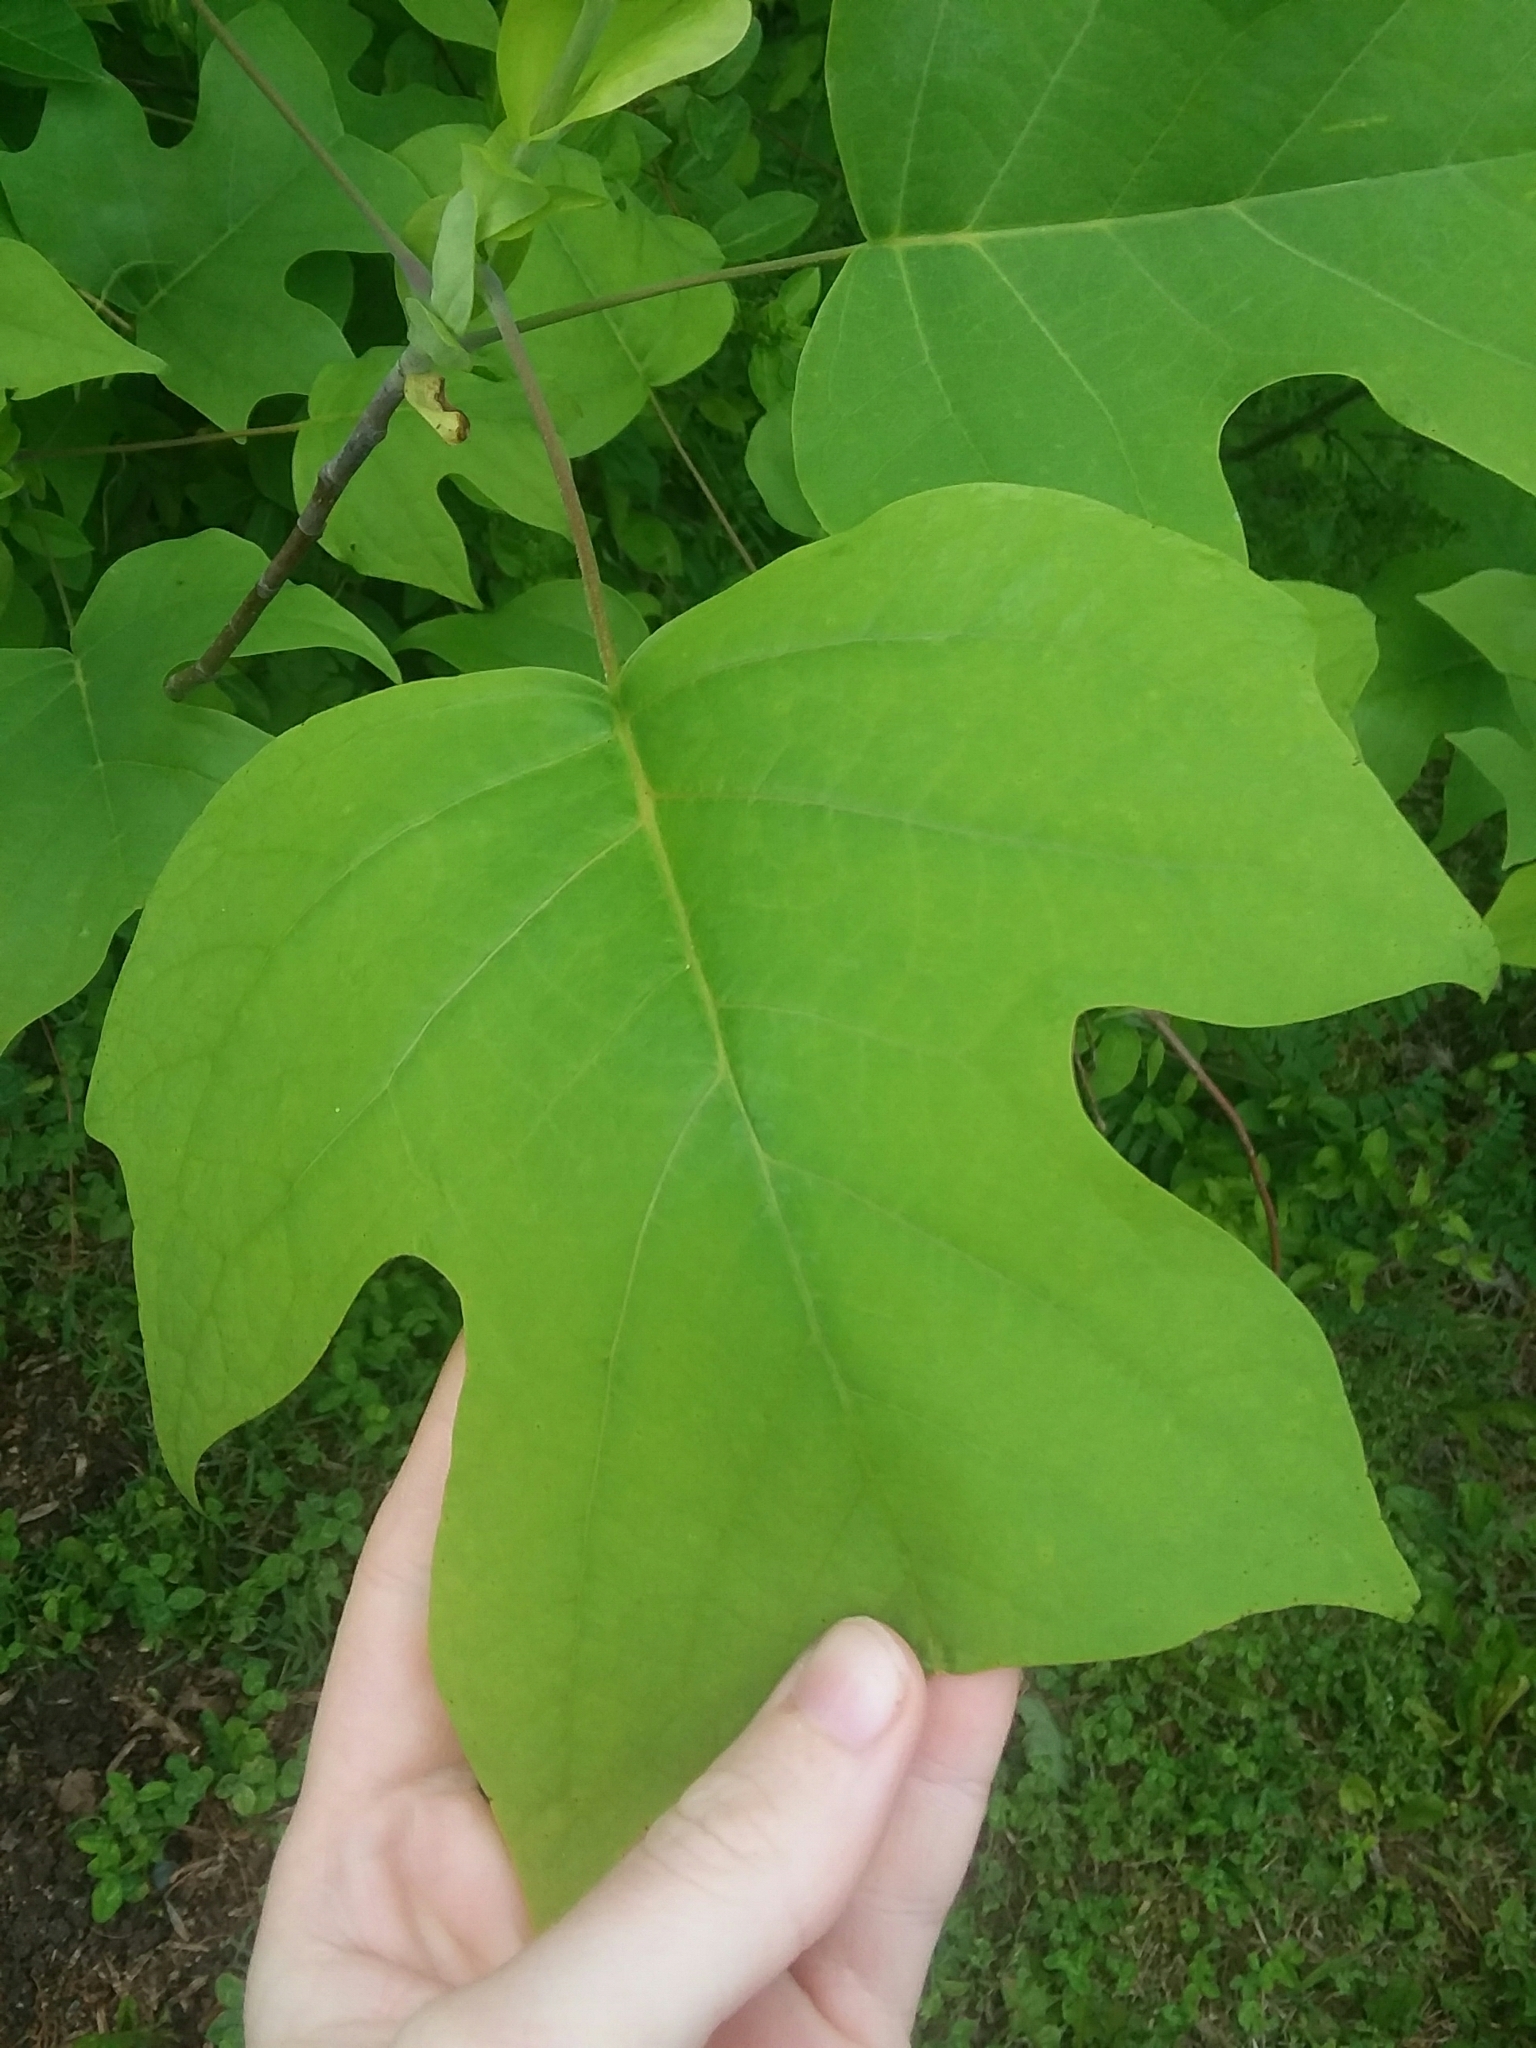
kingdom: Plantae
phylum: Tracheophyta
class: Magnoliopsida
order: Magnoliales
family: Magnoliaceae
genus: Liriodendron
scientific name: Liriodendron tulipifera
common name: Tulip tree
